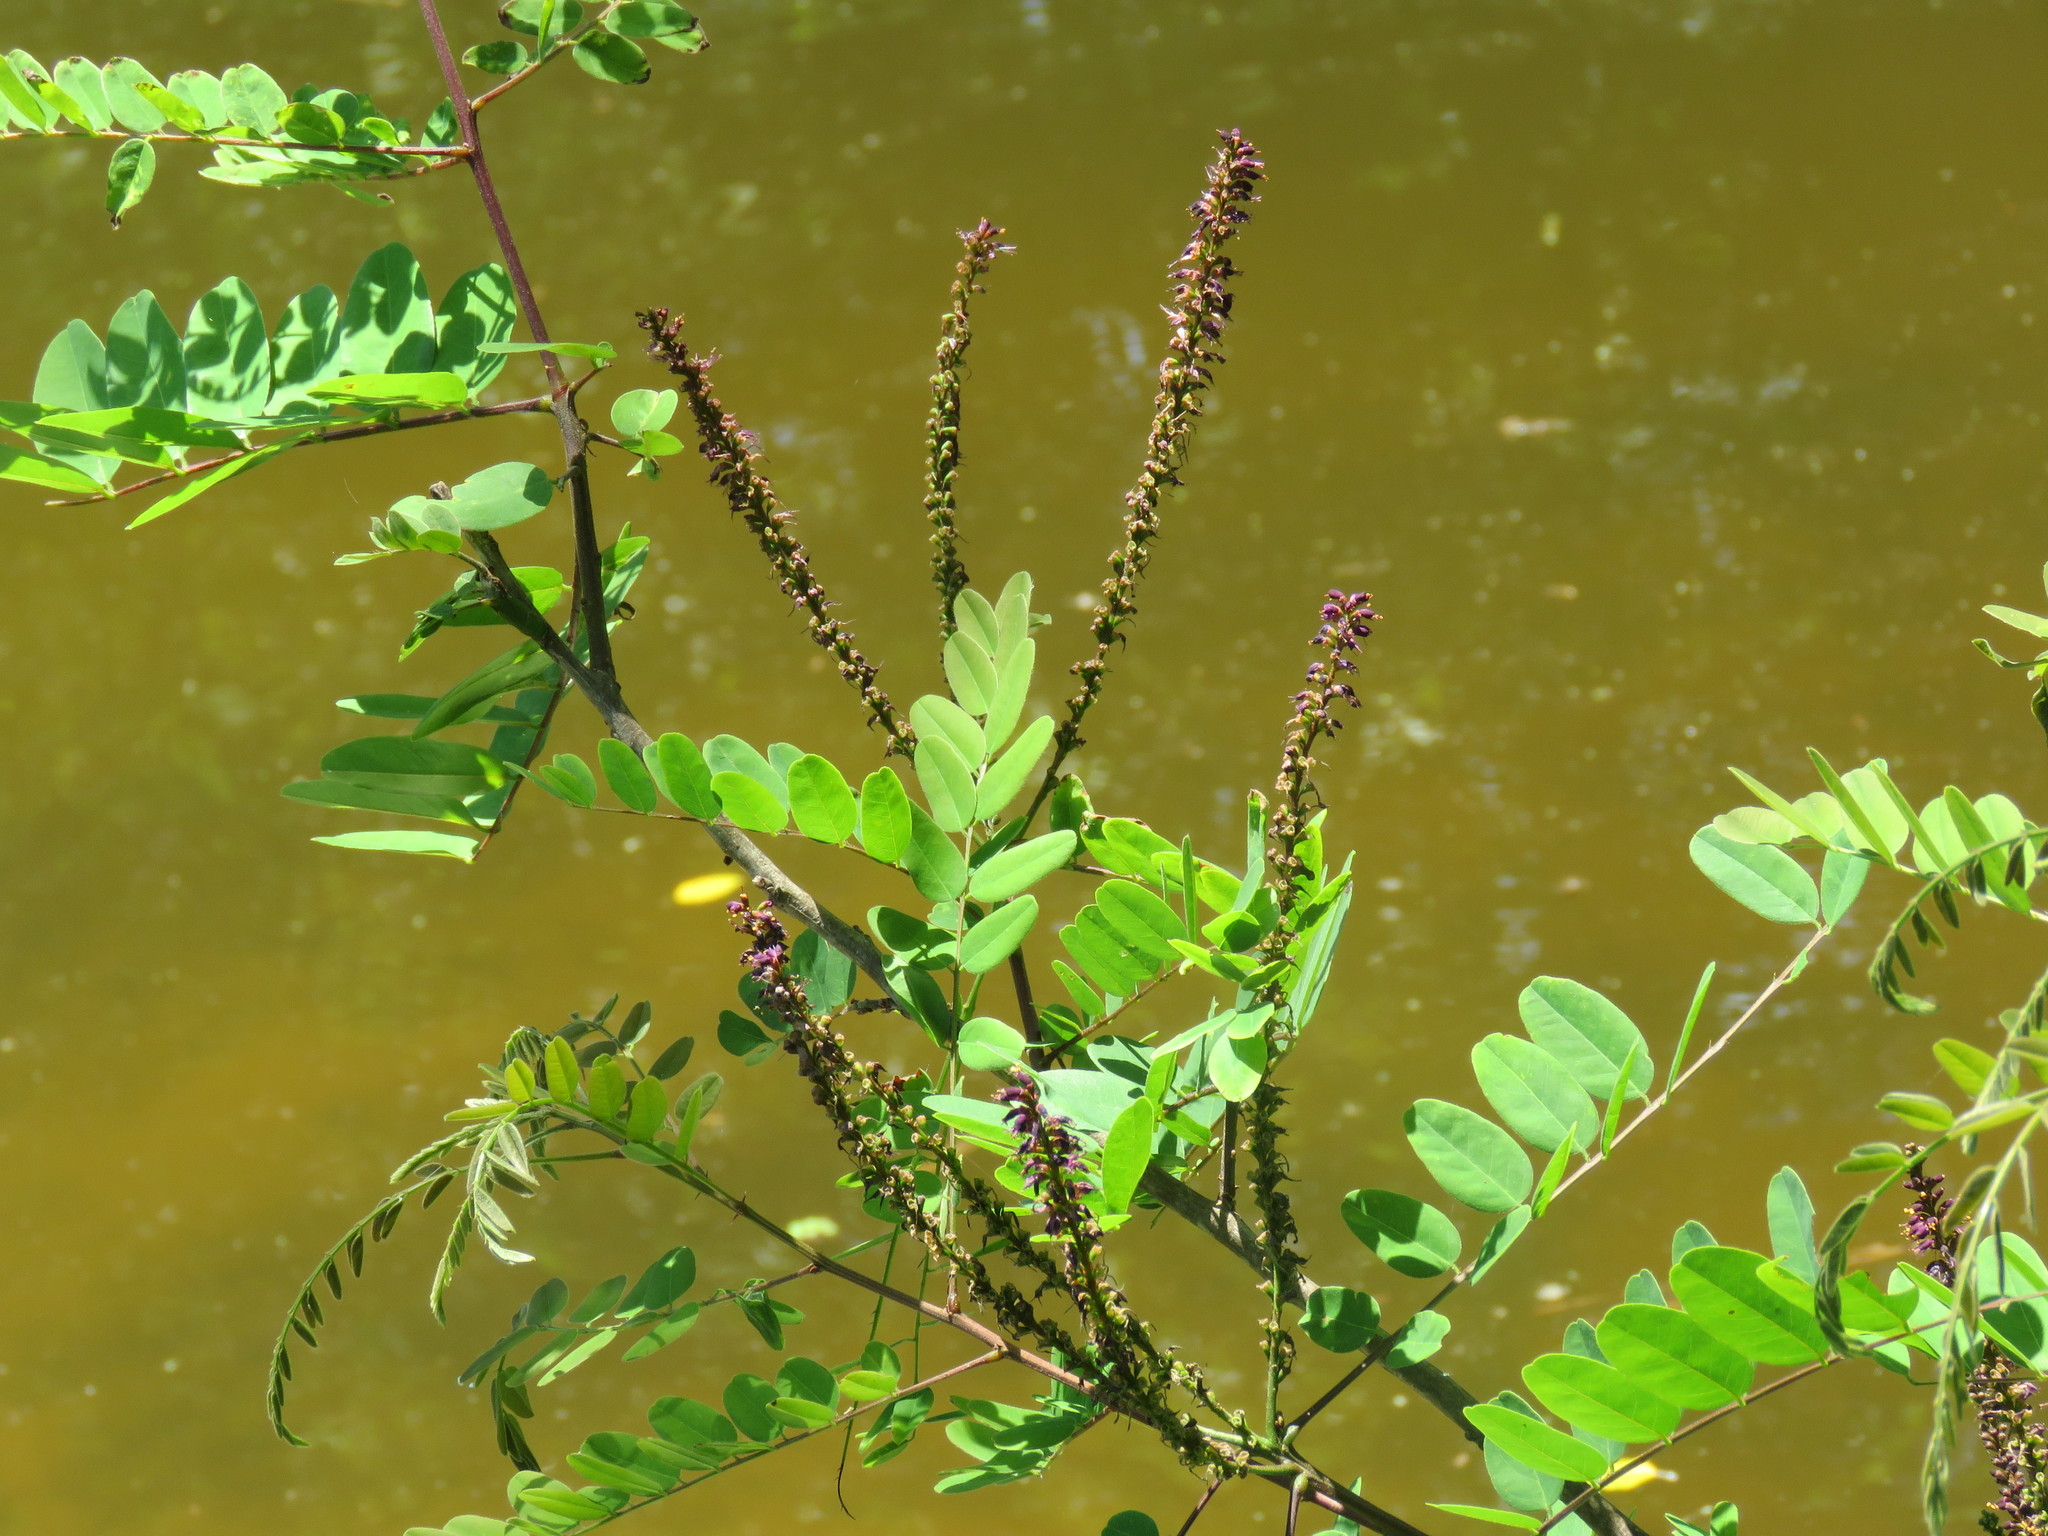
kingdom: Plantae
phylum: Tracheophyta
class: Magnoliopsida
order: Fabales
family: Fabaceae
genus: Amorpha
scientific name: Amorpha fruticosa
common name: False indigo
